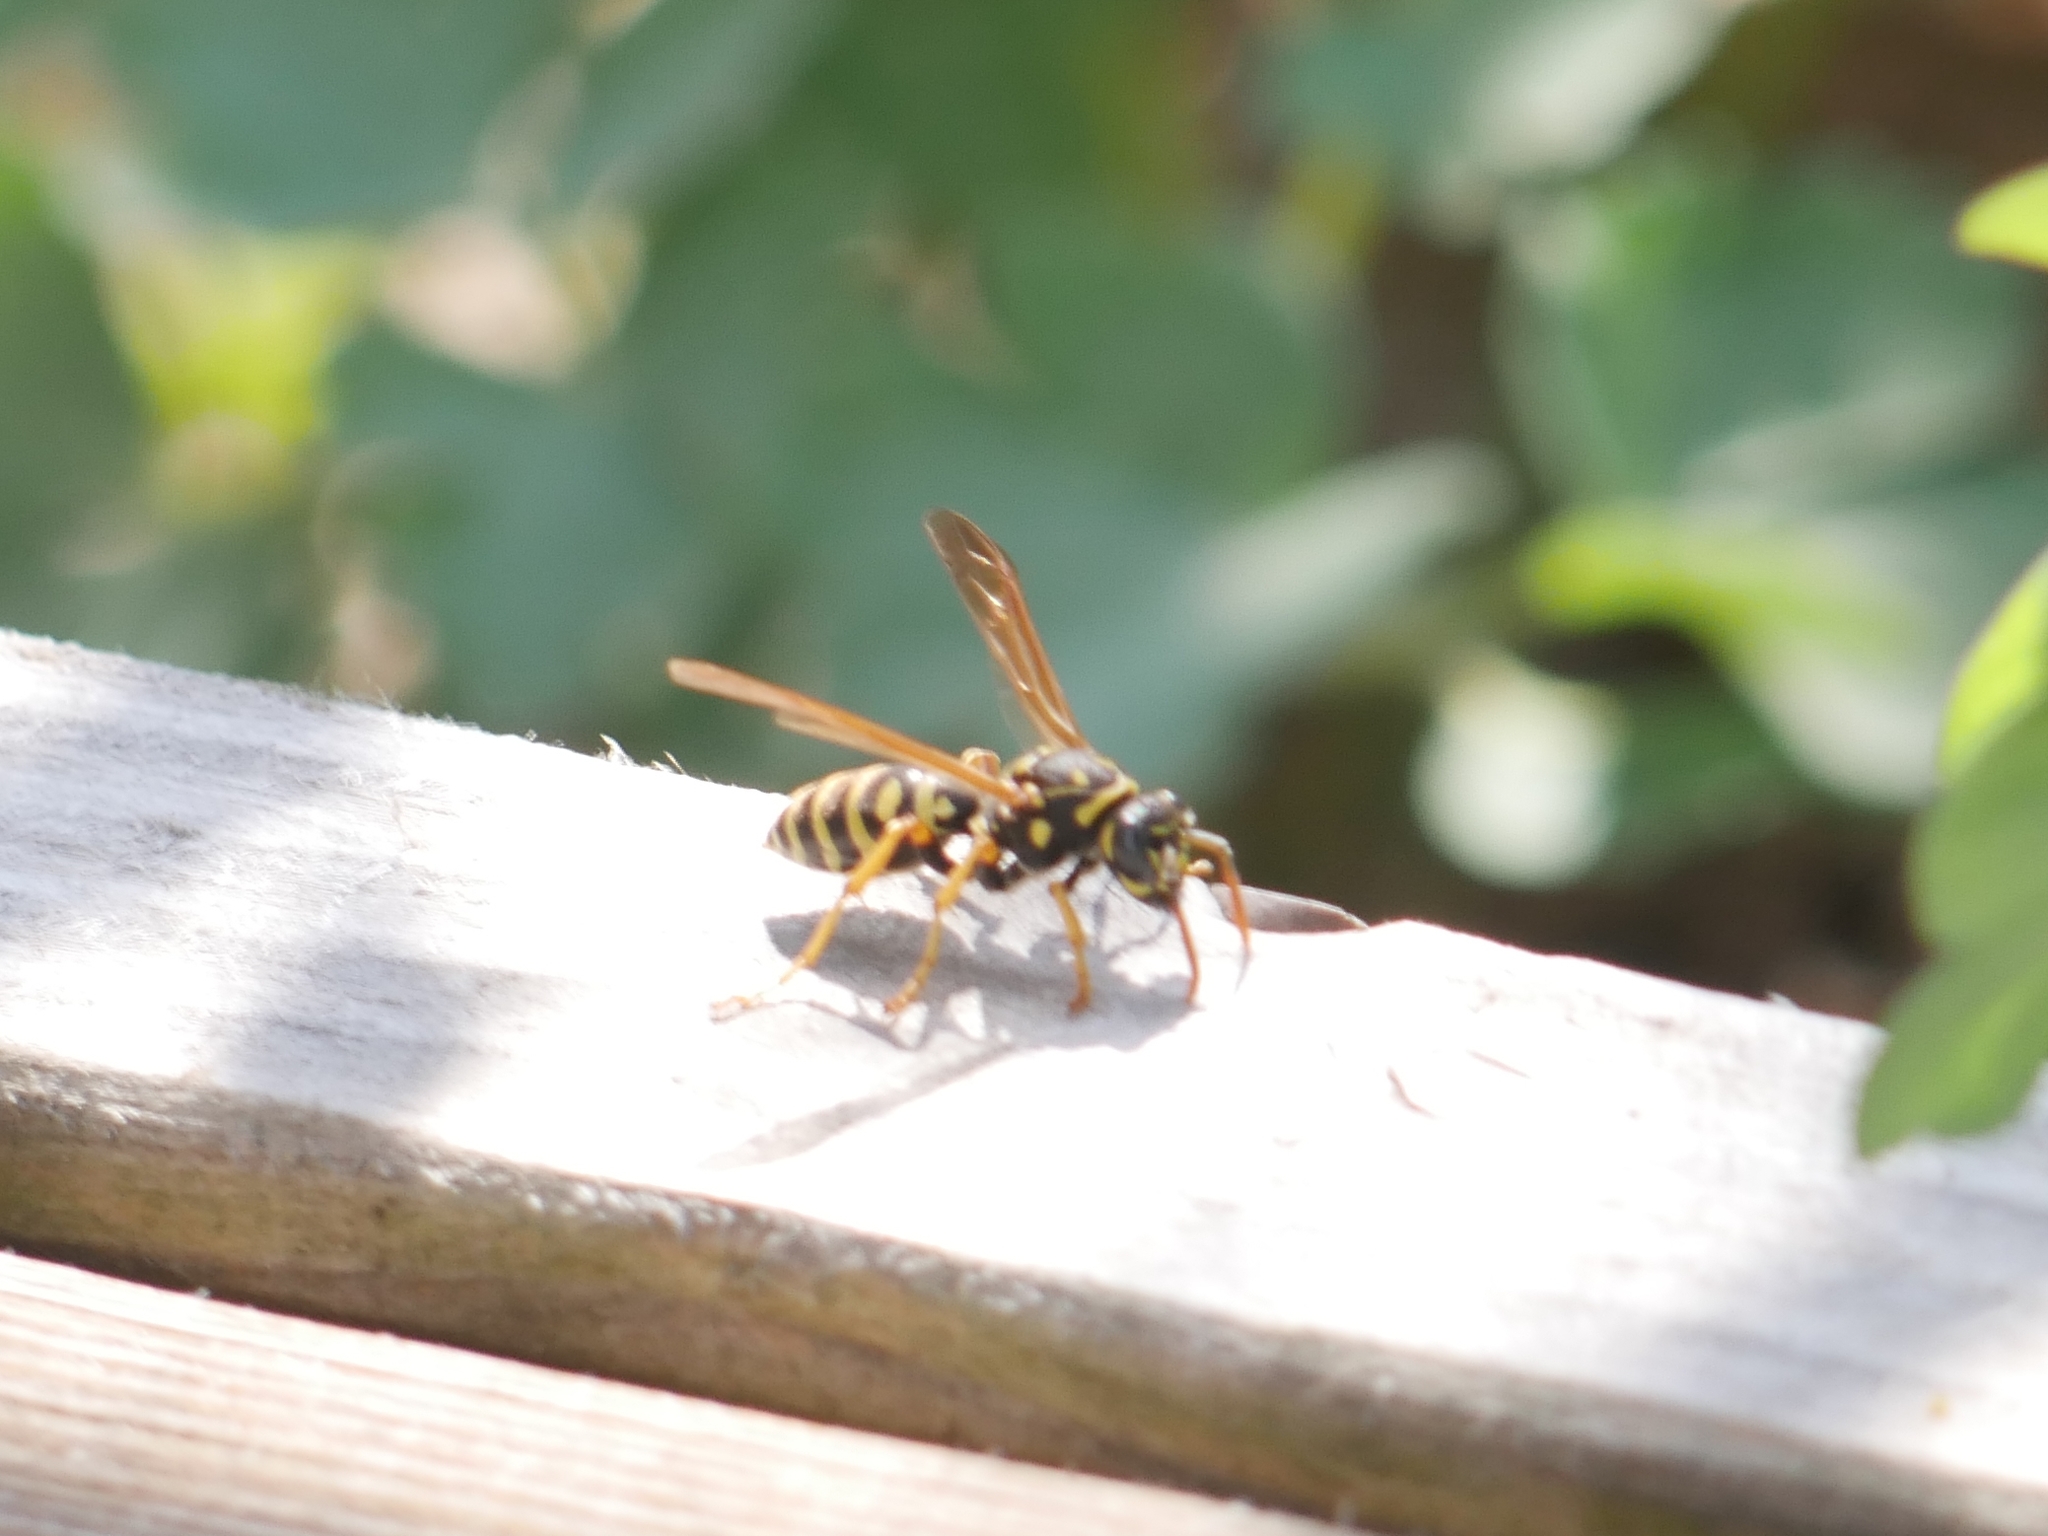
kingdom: Animalia
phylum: Arthropoda
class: Insecta
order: Hymenoptera
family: Eumenidae
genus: Polistes
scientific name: Polistes dominula
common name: Paper wasp
